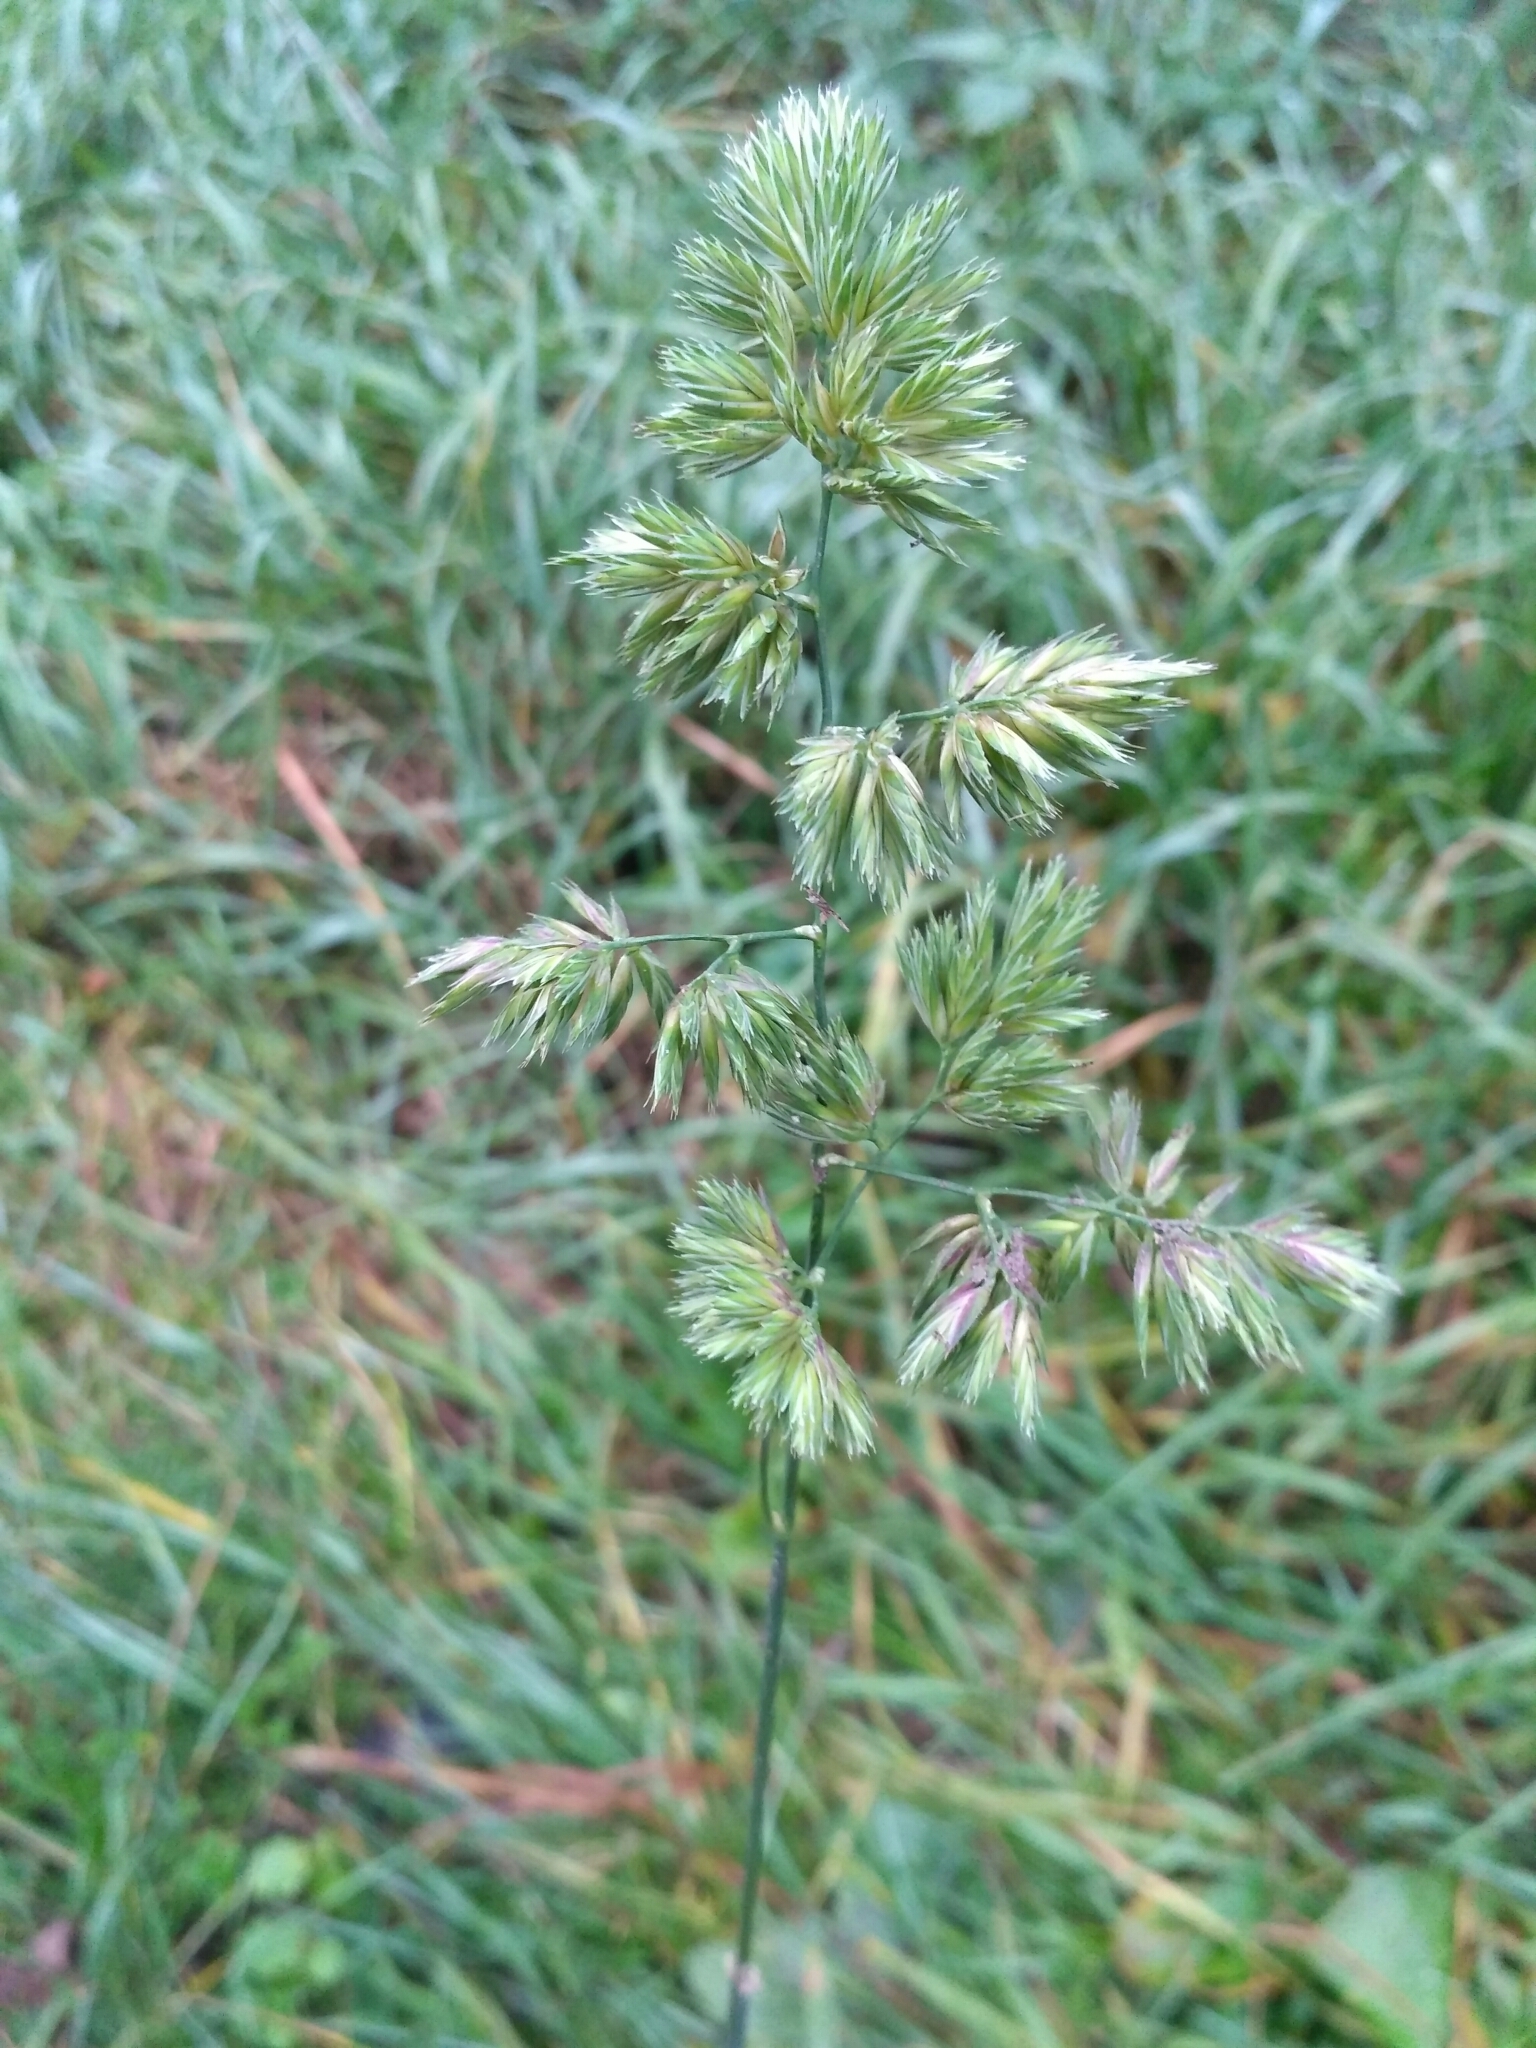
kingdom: Plantae
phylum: Tracheophyta
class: Liliopsida
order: Poales
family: Poaceae
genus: Dactylis
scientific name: Dactylis glomerata
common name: Orchardgrass
